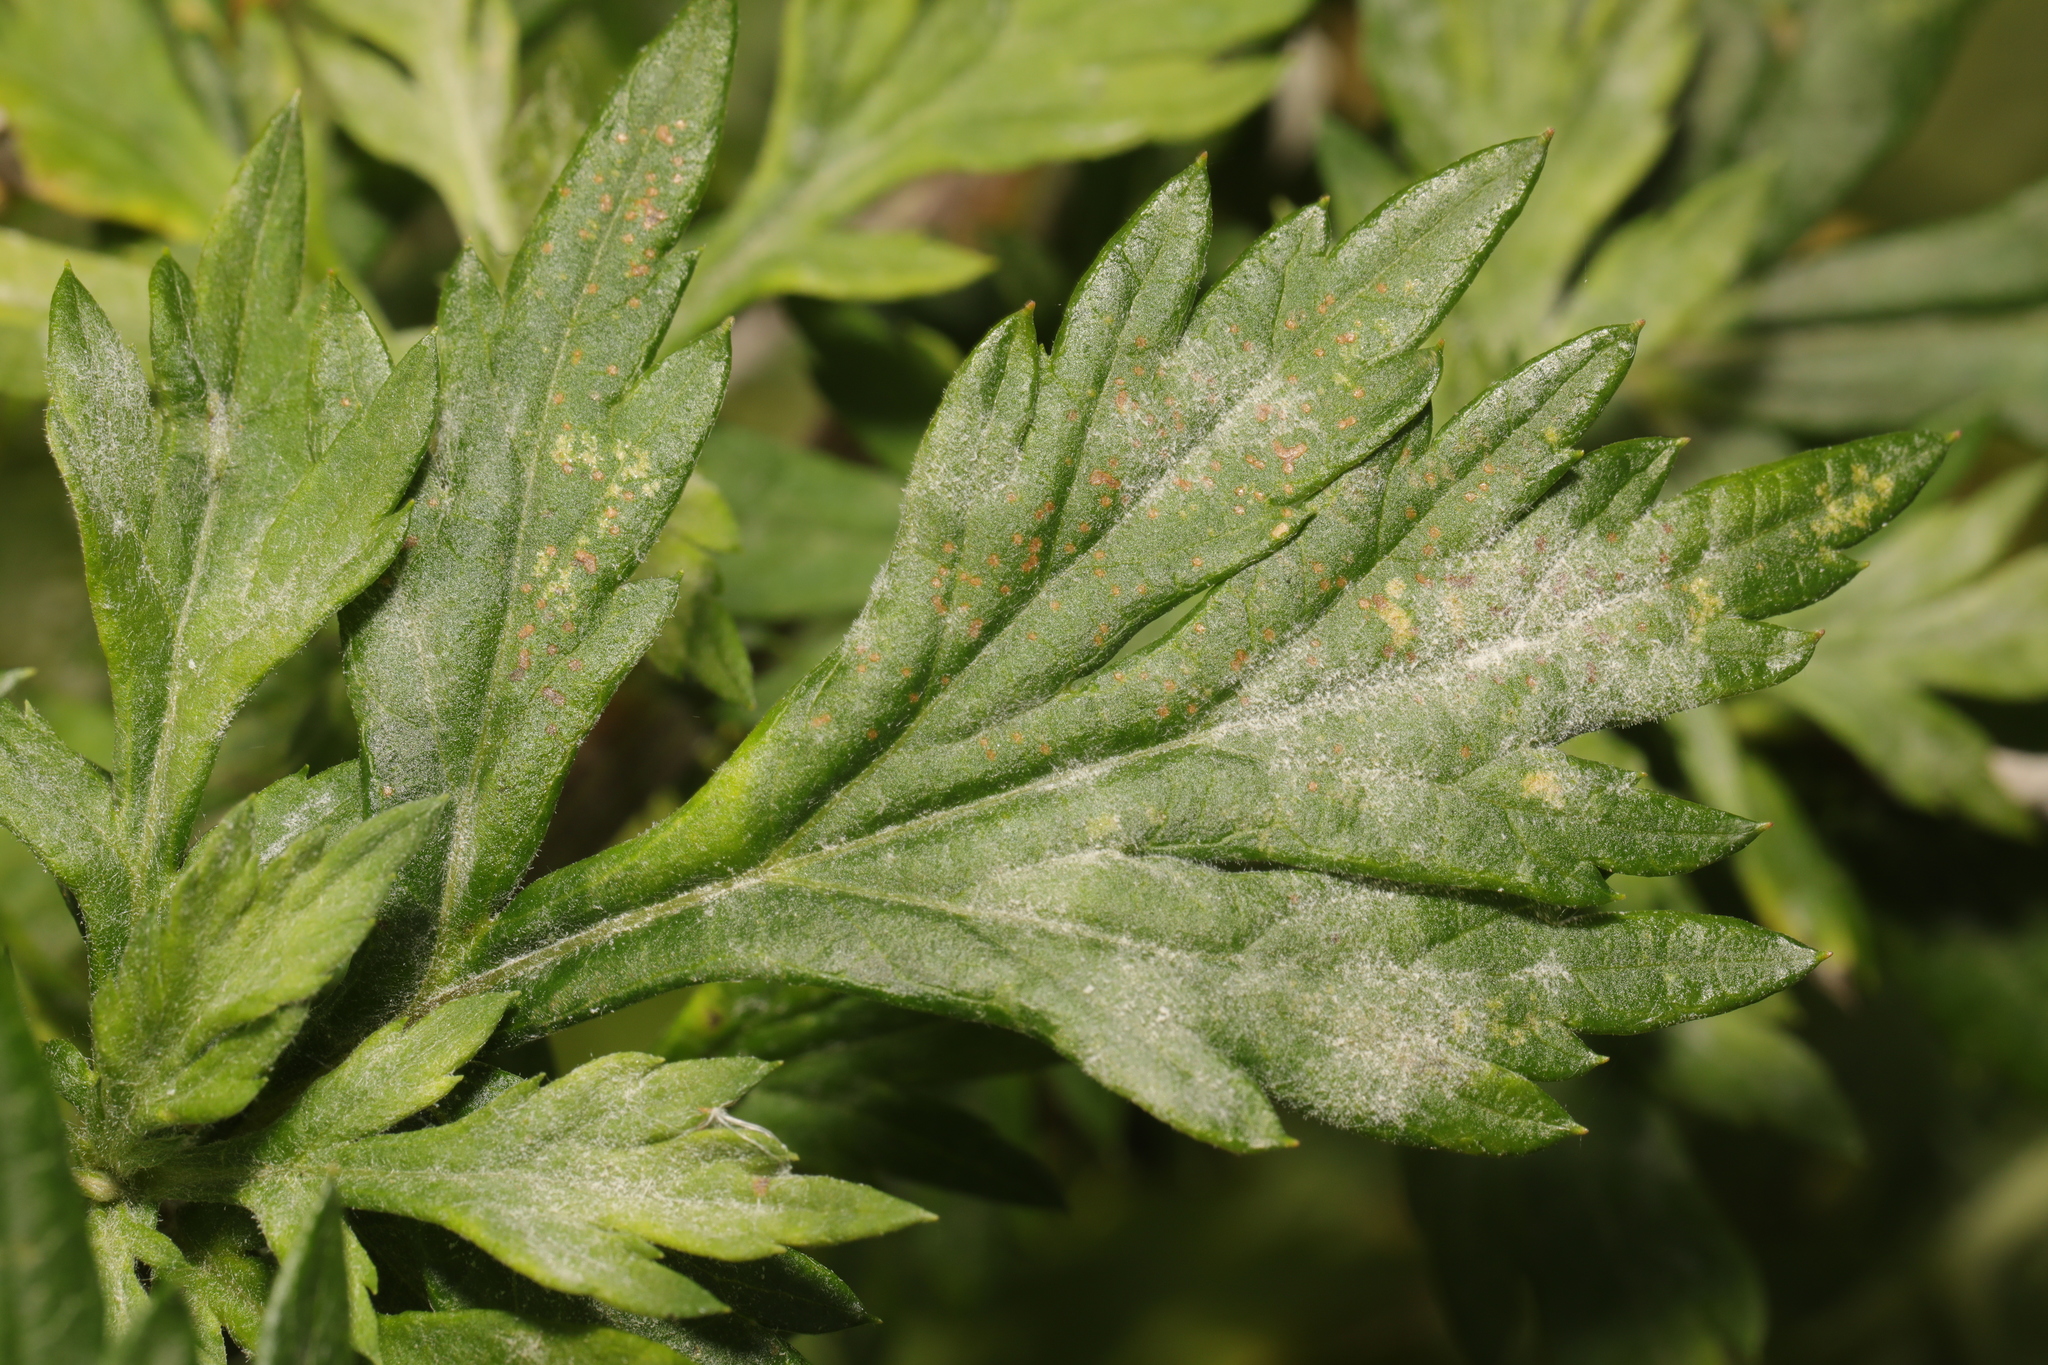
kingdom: Fungi
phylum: Ascomycota
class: Leotiomycetes
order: Helotiales
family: Erysiphaceae
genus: Golovinomyces
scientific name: Golovinomyces artemisiae
